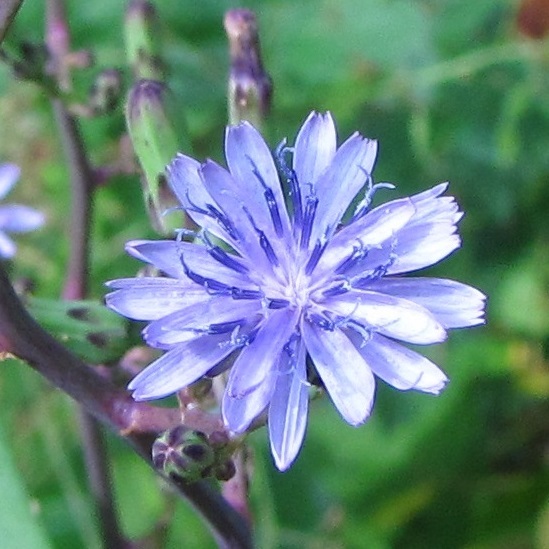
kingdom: Plantae
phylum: Tracheophyta
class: Magnoliopsida
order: Asterales
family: Asteraceae
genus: Lactuca
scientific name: Lactuca floridana
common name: Woodland lettuce
